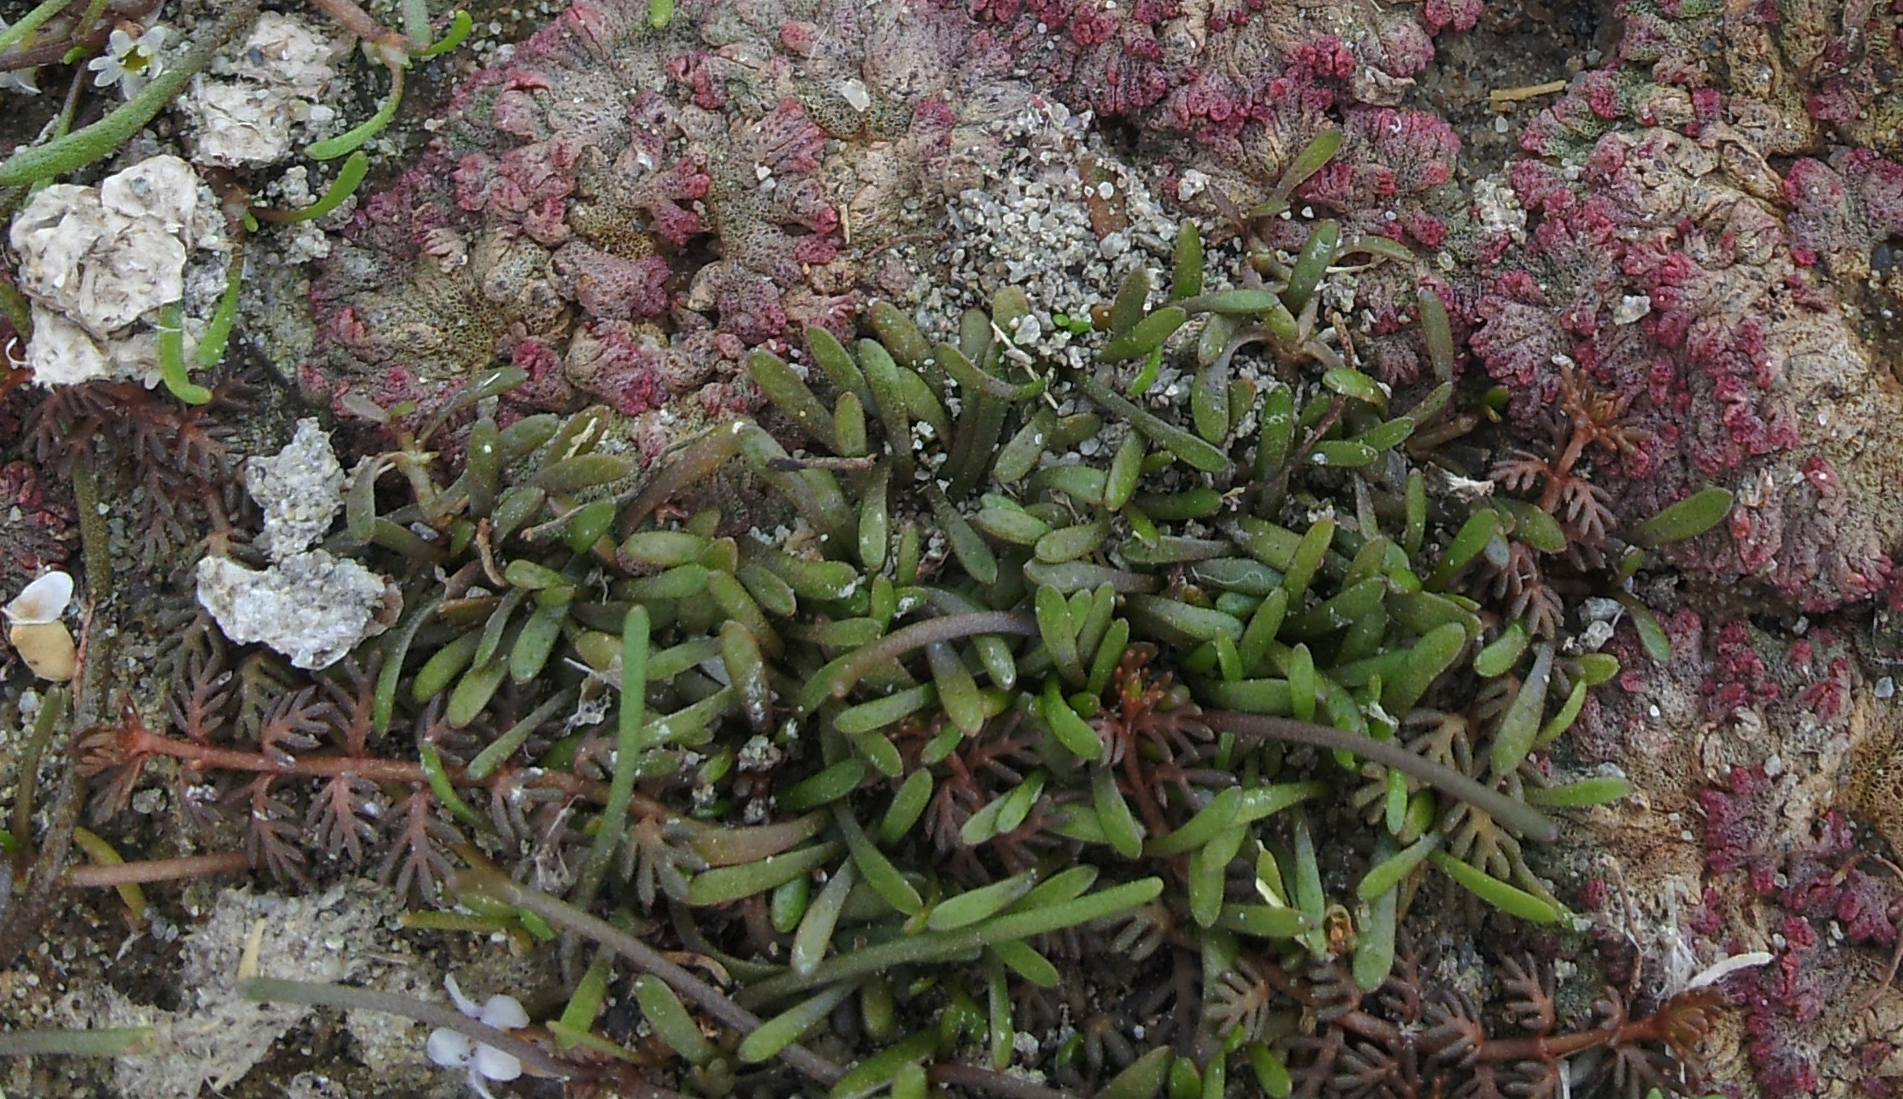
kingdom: Plantae
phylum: Tracheophyta
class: Magnoliopsida
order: Lamiales
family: Phrymaceae
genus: Glossostigma
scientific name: Glossostigma cleistanthum
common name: Mudmats
